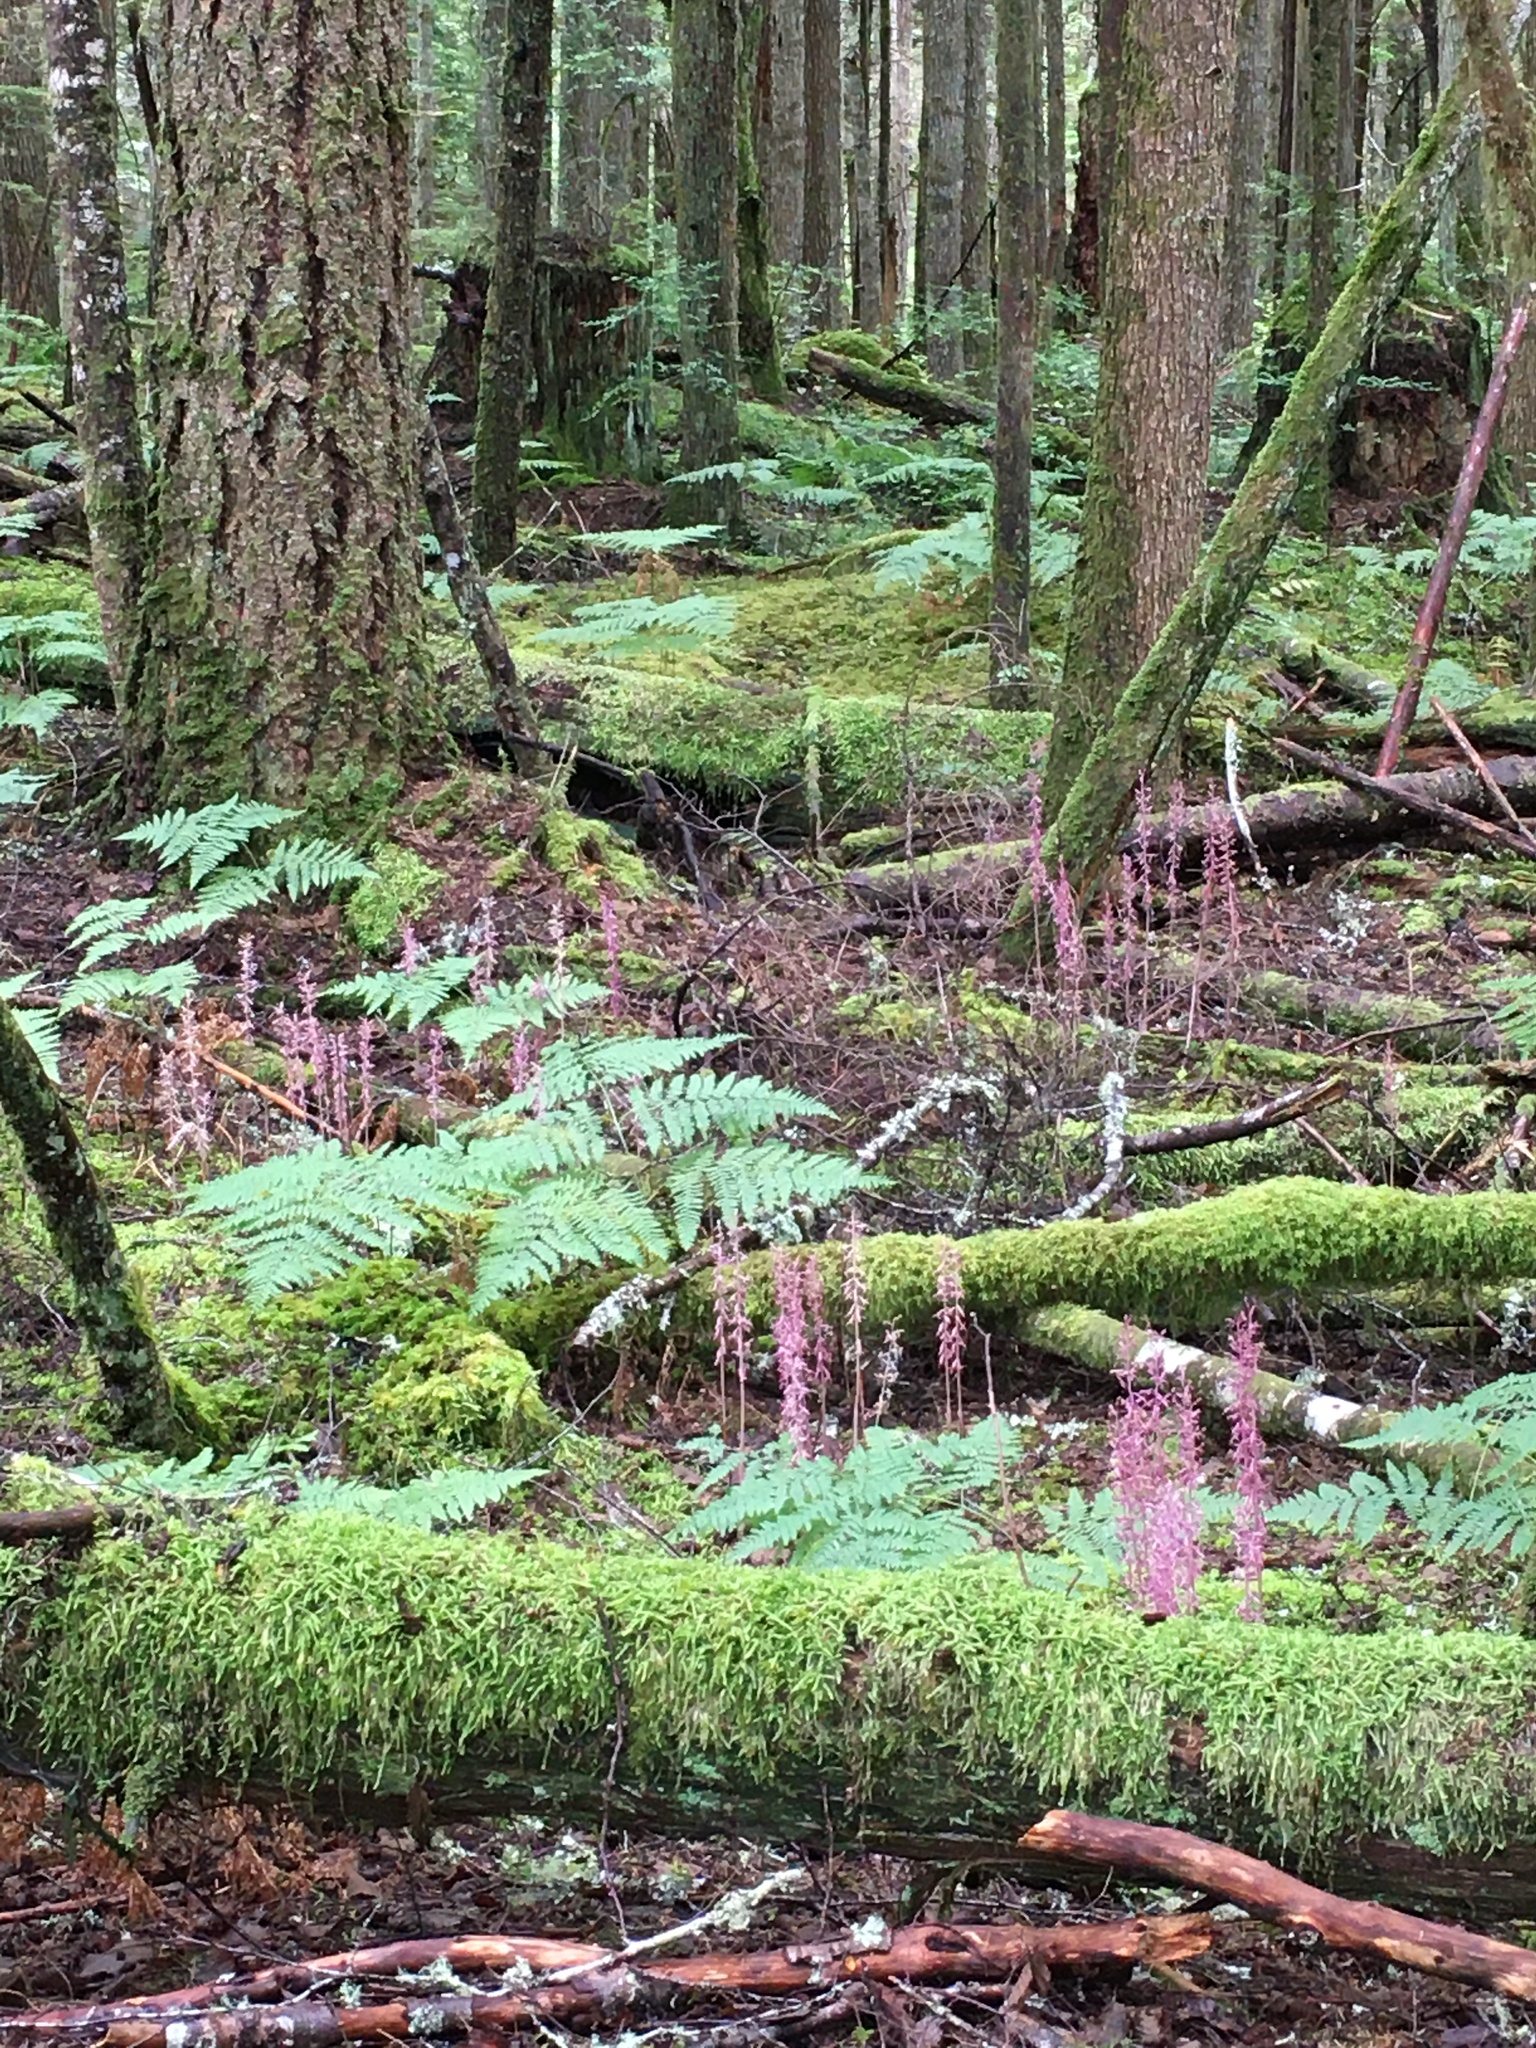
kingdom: Plantae
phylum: Tracheophyta
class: Liliopsida
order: Asparagales
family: Orchidaceae
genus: Corallorhiza
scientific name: Corallorhiza mertensiana
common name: Pacific coralroot
